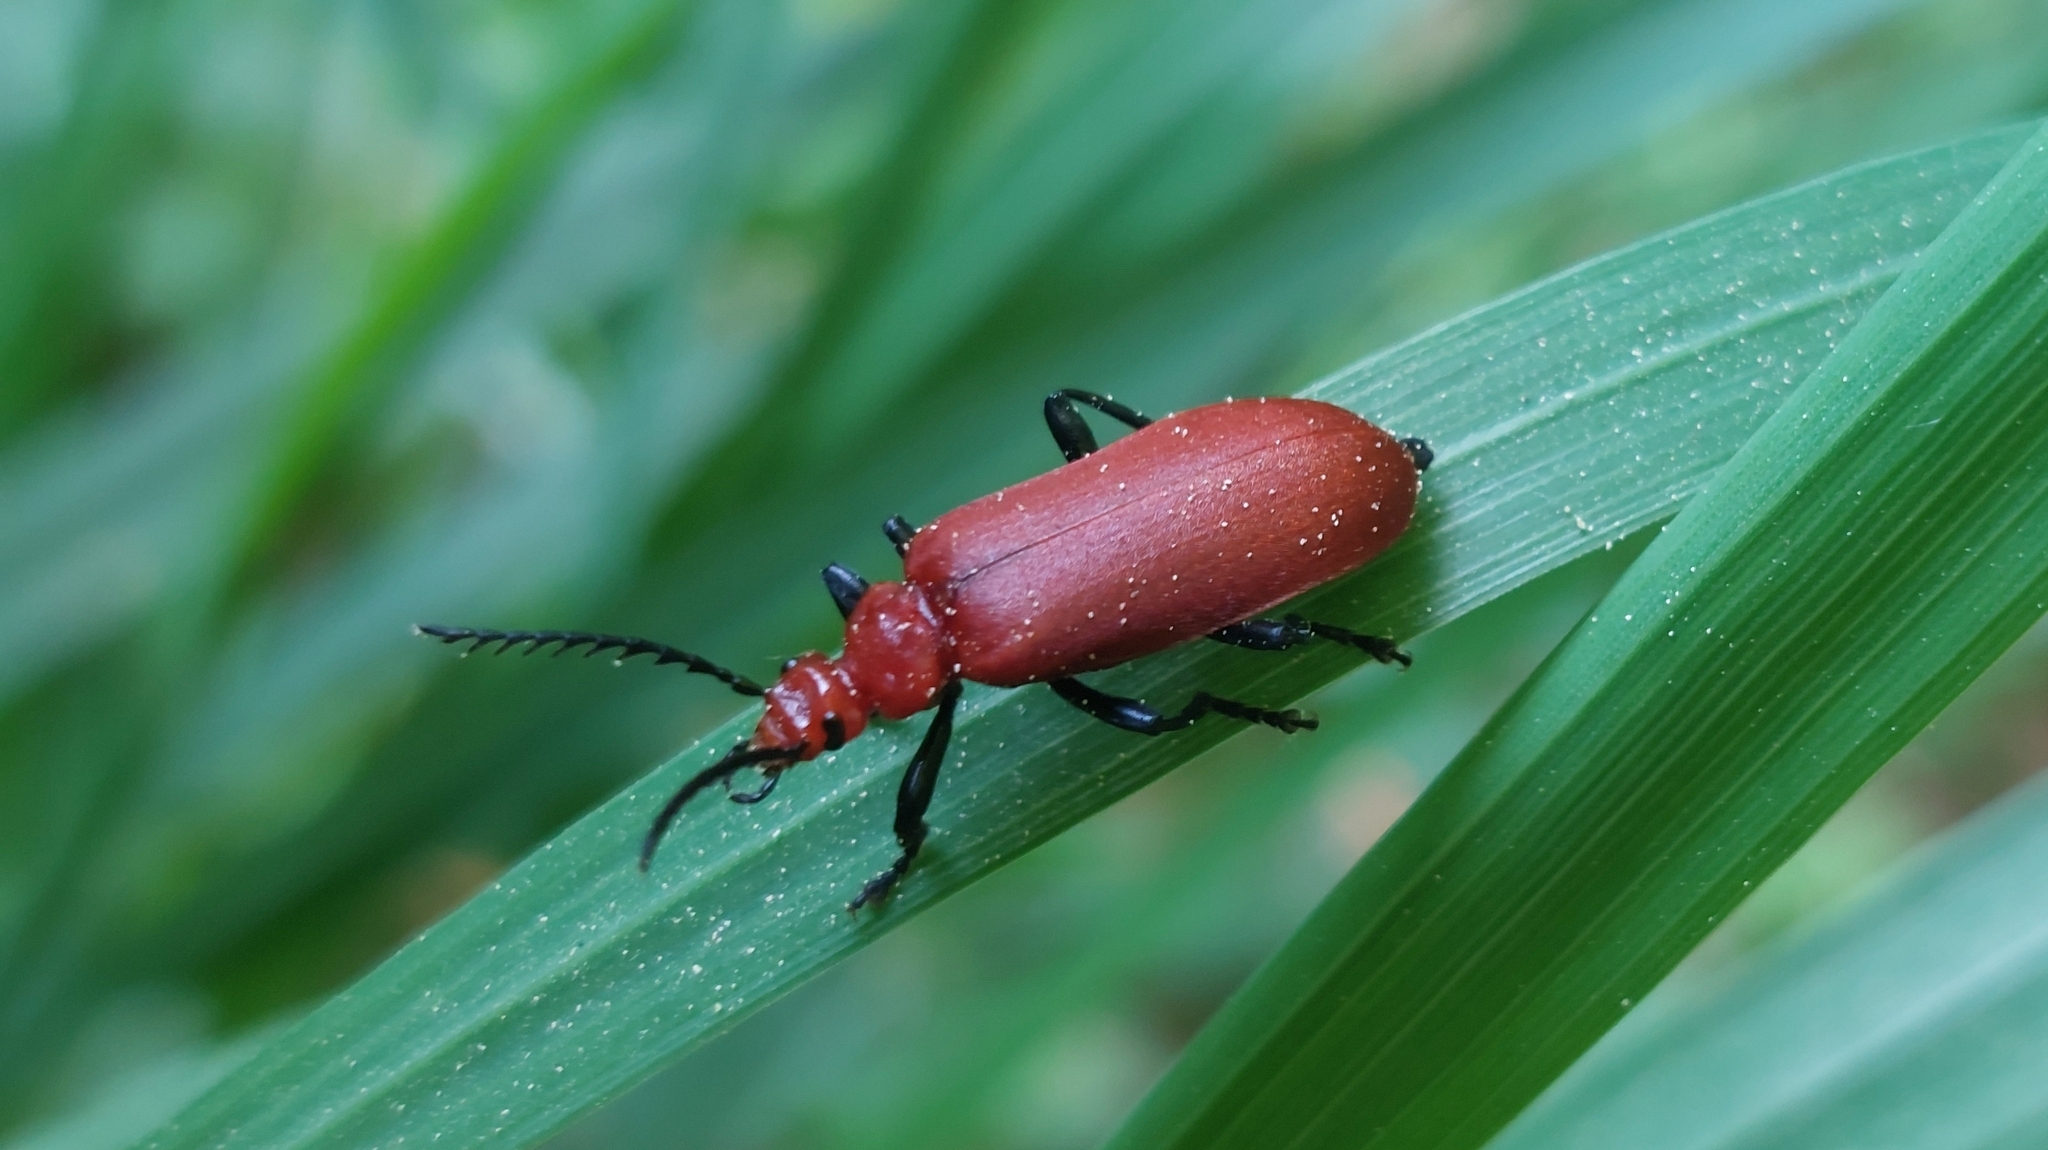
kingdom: Animalia
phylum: Arthropoda
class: Insecta
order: Coleoptera
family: Pyrochroidae
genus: Pyrochroa
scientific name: Pyrochroa serraticornis
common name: Red-headed cardinal beetle
